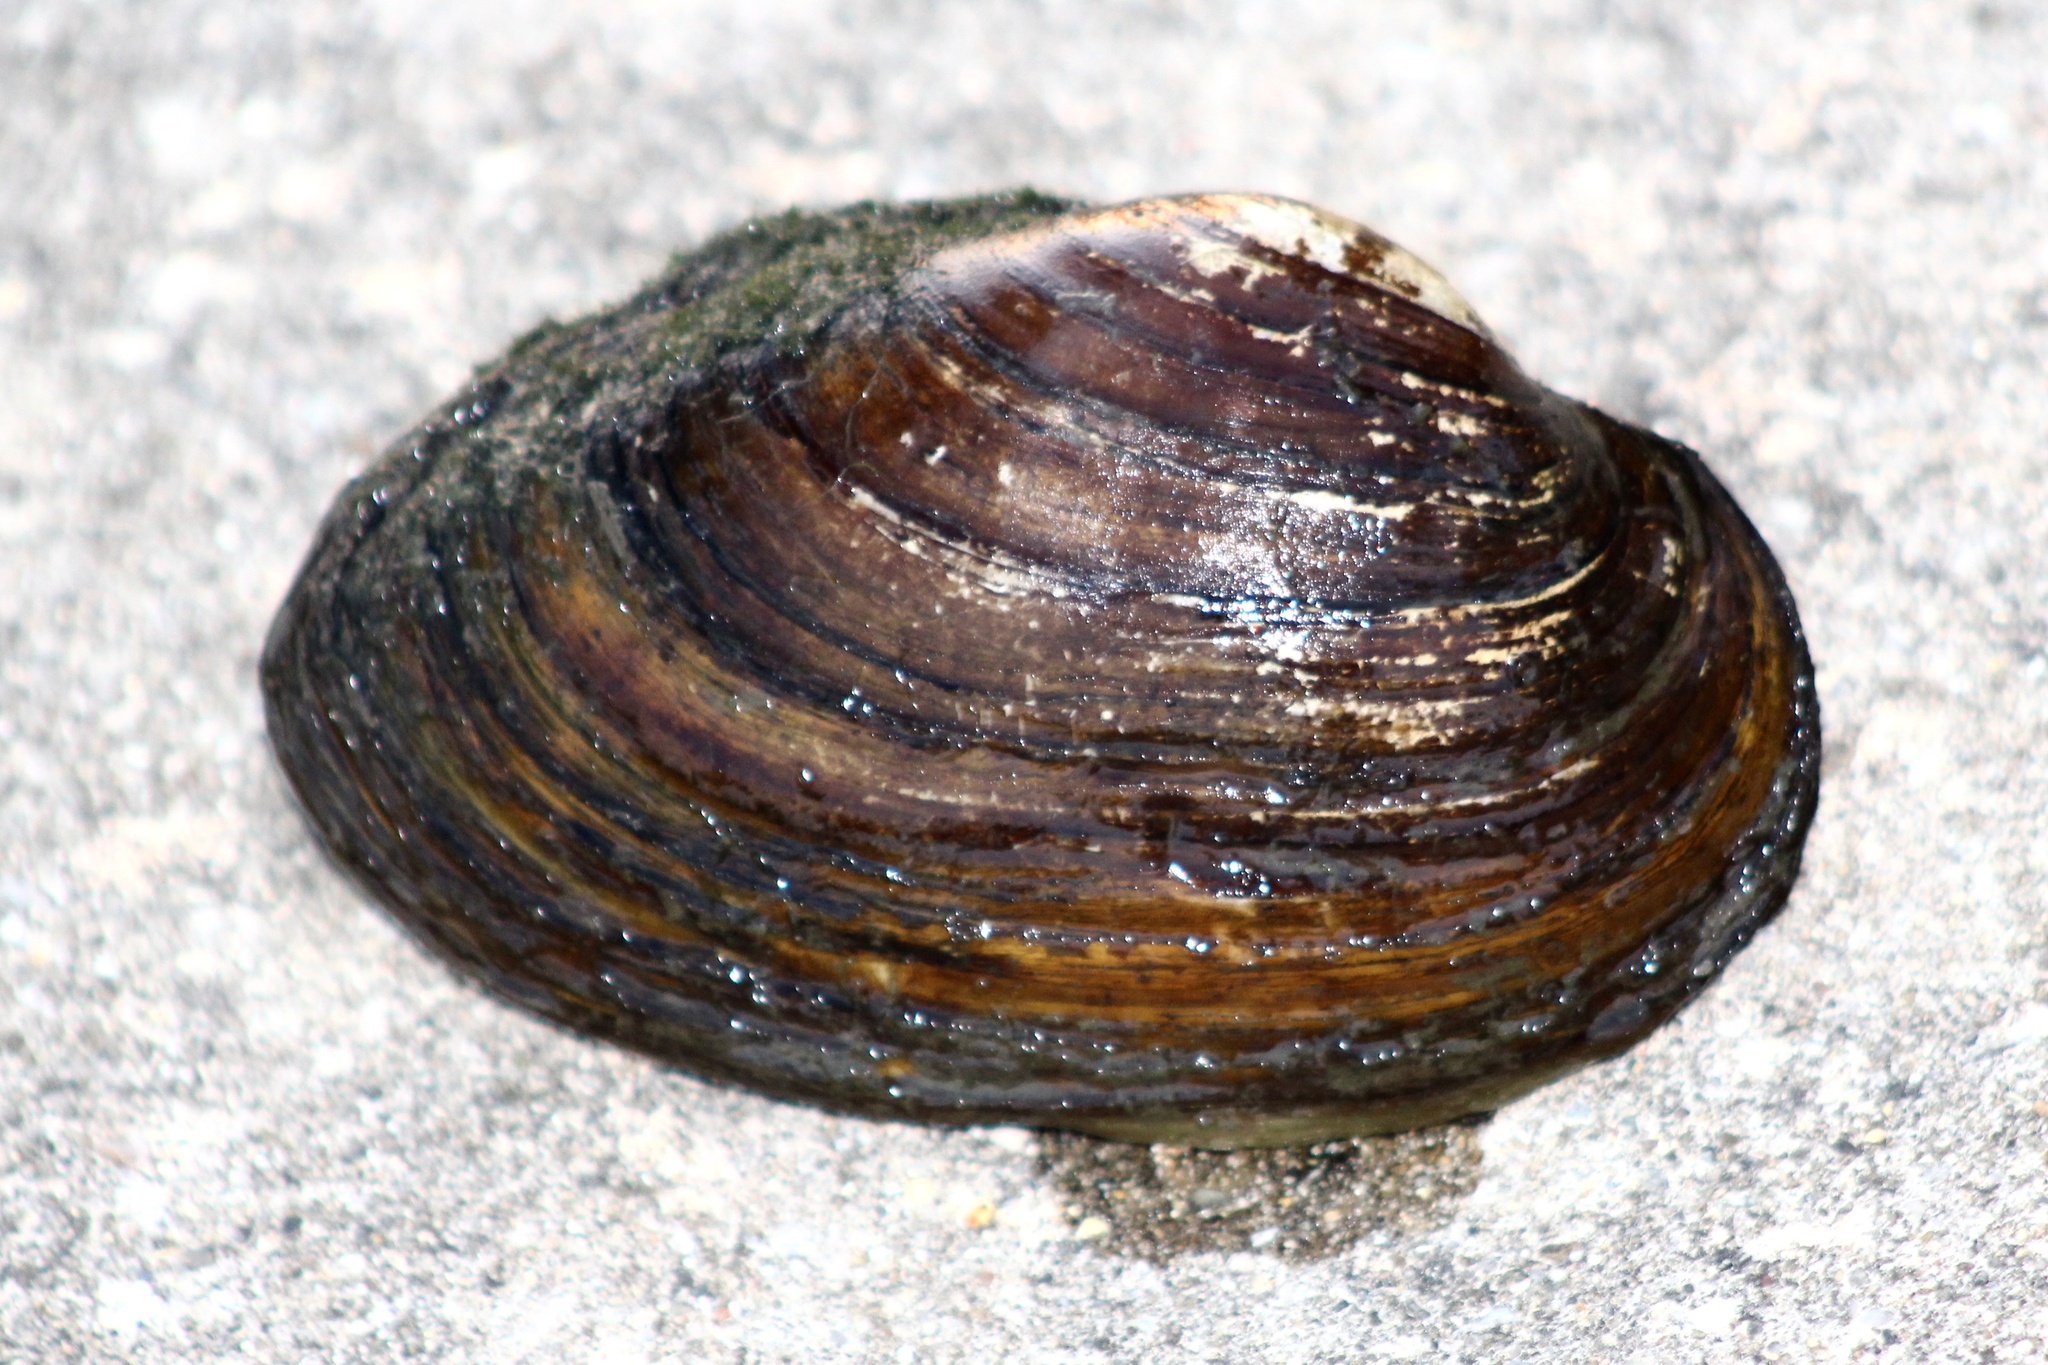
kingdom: Animalia
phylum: Mollusca
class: Bivalvia
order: Unionida
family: Unionidae
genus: Pyganodon
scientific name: Pyganodon grandis
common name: Giant floater
